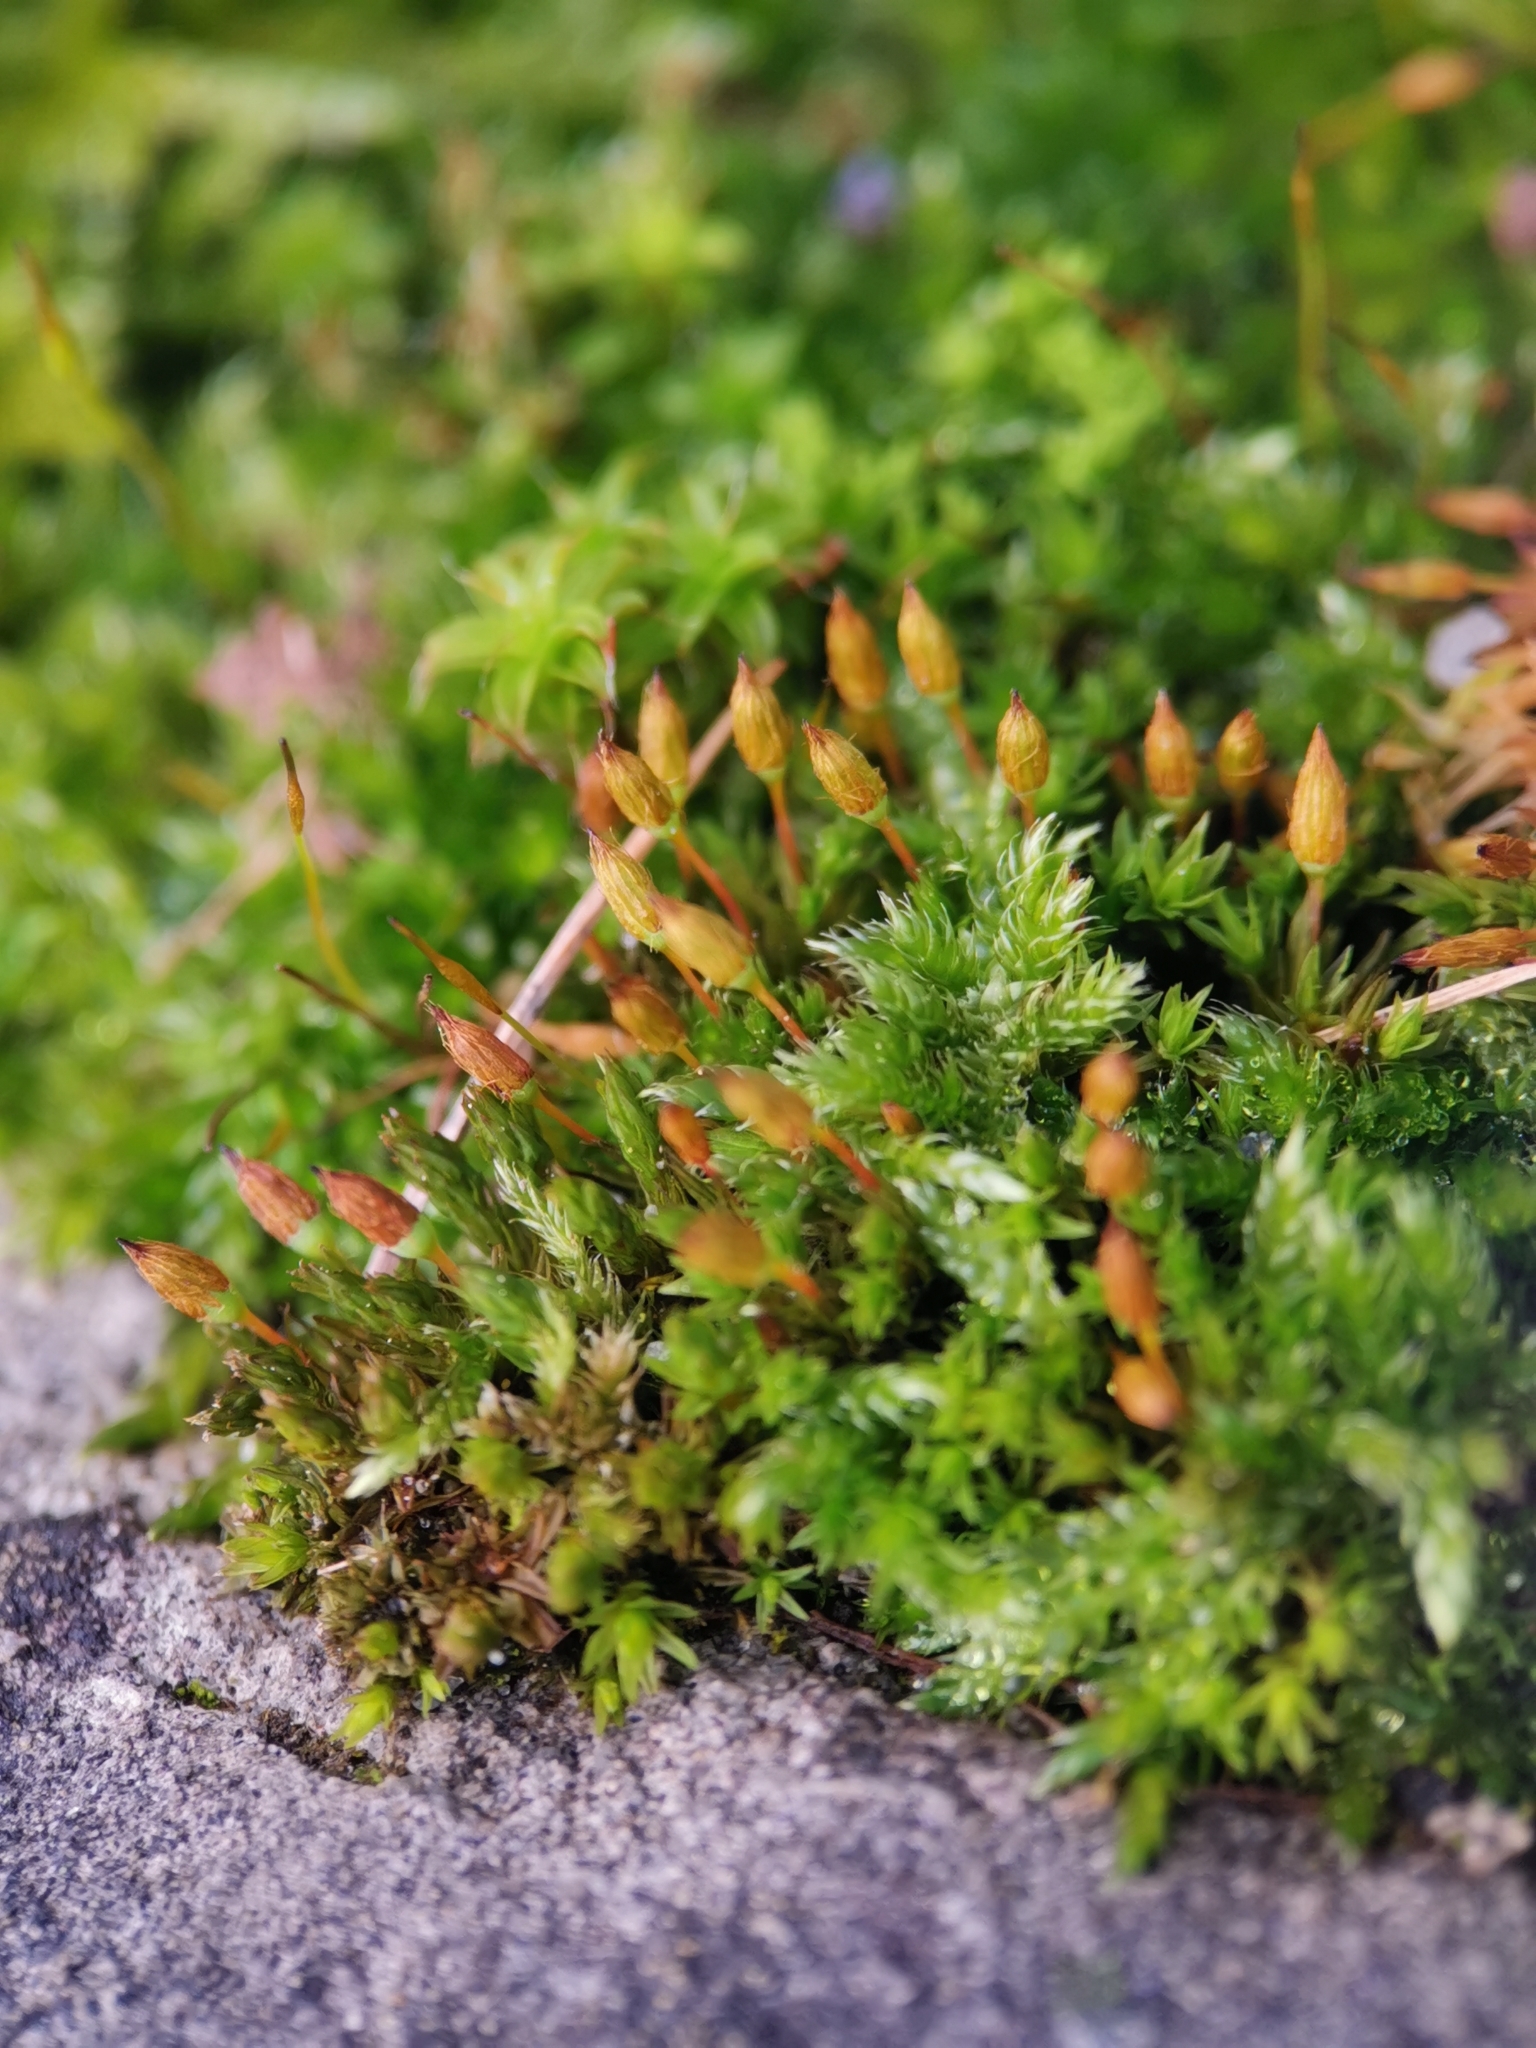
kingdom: Plantae
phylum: Bryophyta
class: Bryopsida
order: Orthotrichales
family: Orthotrichaceae
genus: Orthotrichum
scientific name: Orthotrichum anomalum
